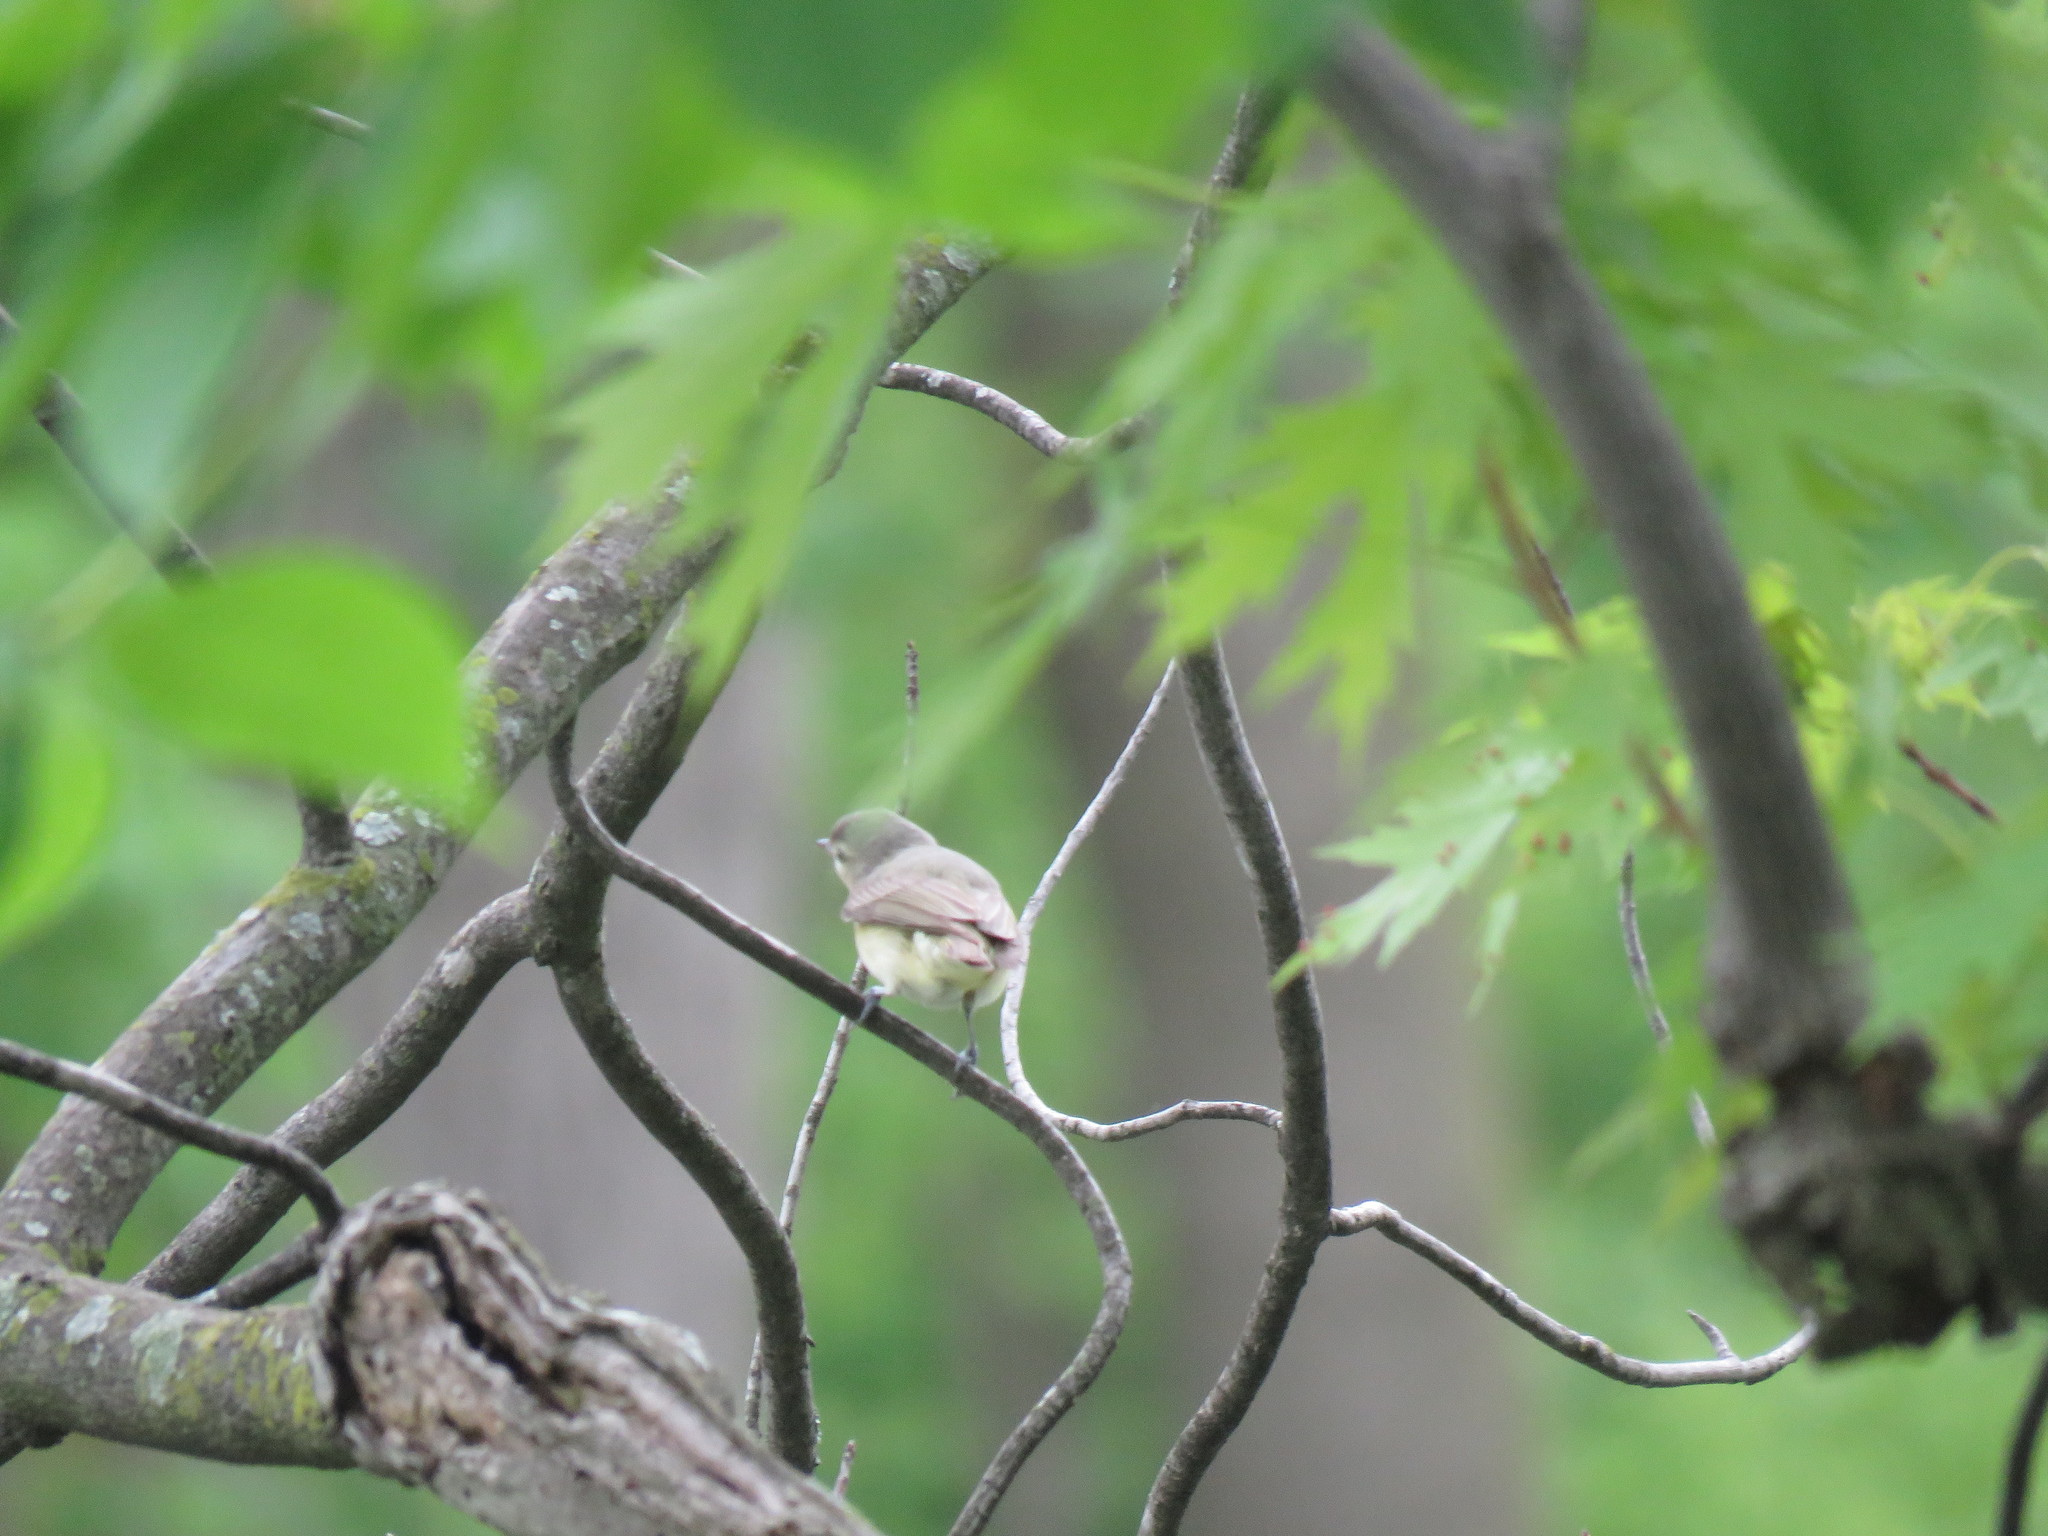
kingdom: Animalia
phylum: Chordata
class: Aves
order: Passeriformes
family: Vireonidae
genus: Vireo
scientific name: Vireo gilvus
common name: Warbling vireo
